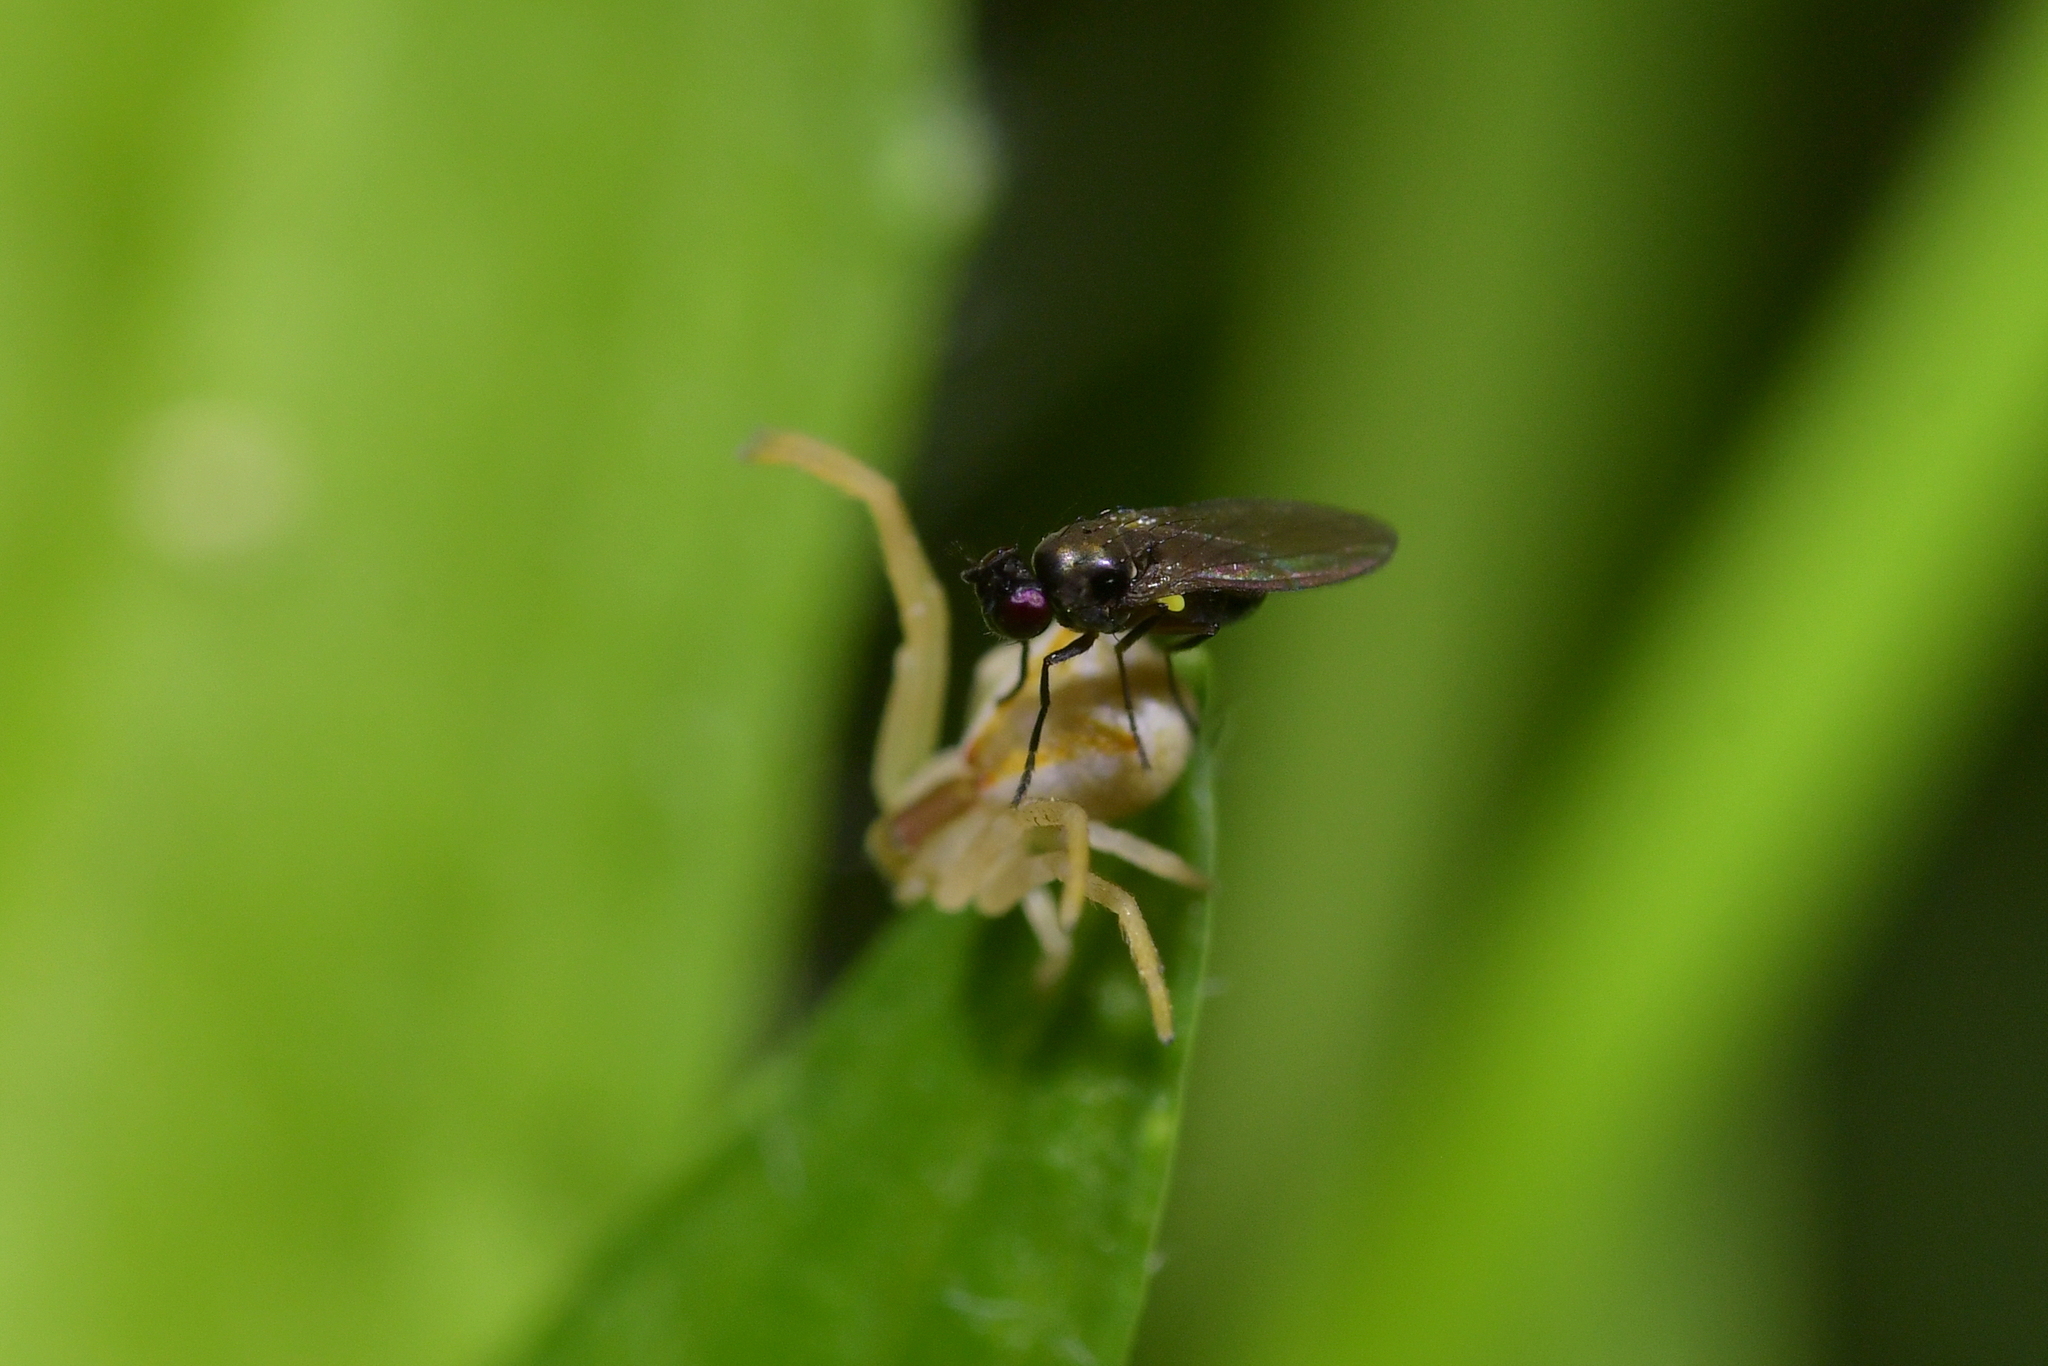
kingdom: Animalia
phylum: Arthropoda
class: Insecta
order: Diptera
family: Ephydridae
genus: Hydrellia
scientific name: Hydrellia tritici
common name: Shore fly
